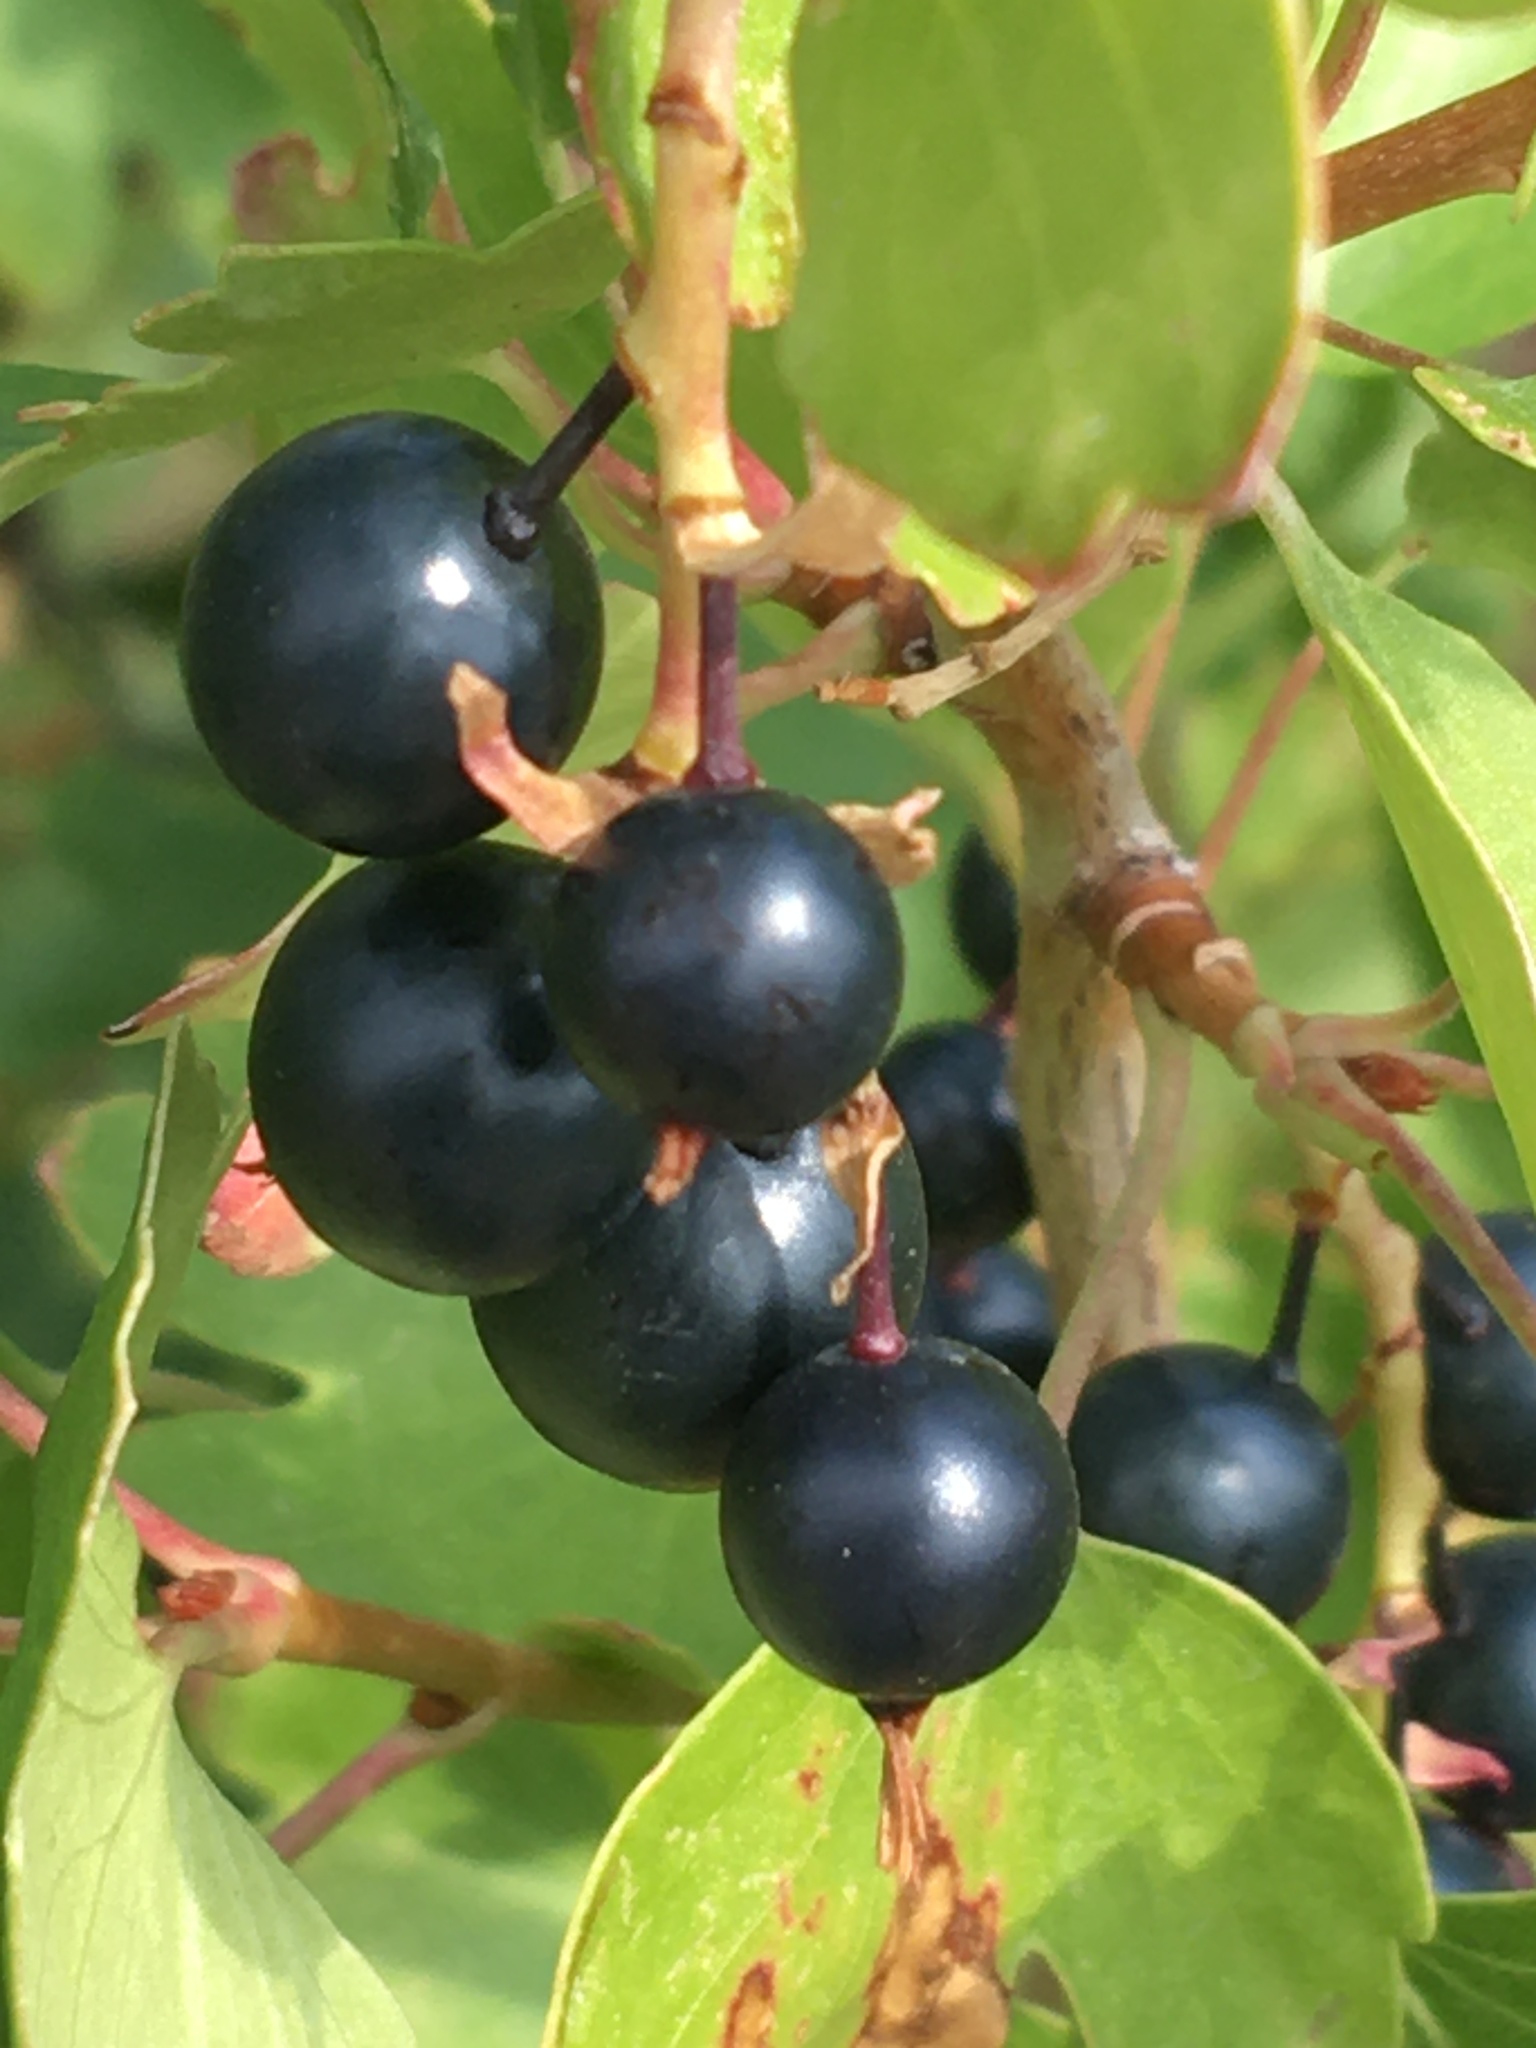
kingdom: Plantae
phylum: Tracheophyta
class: Magnoliopsida
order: Saxifragales
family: Grossulariaceae
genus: Ribes
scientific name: Ribes aureum
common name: Golden currant
